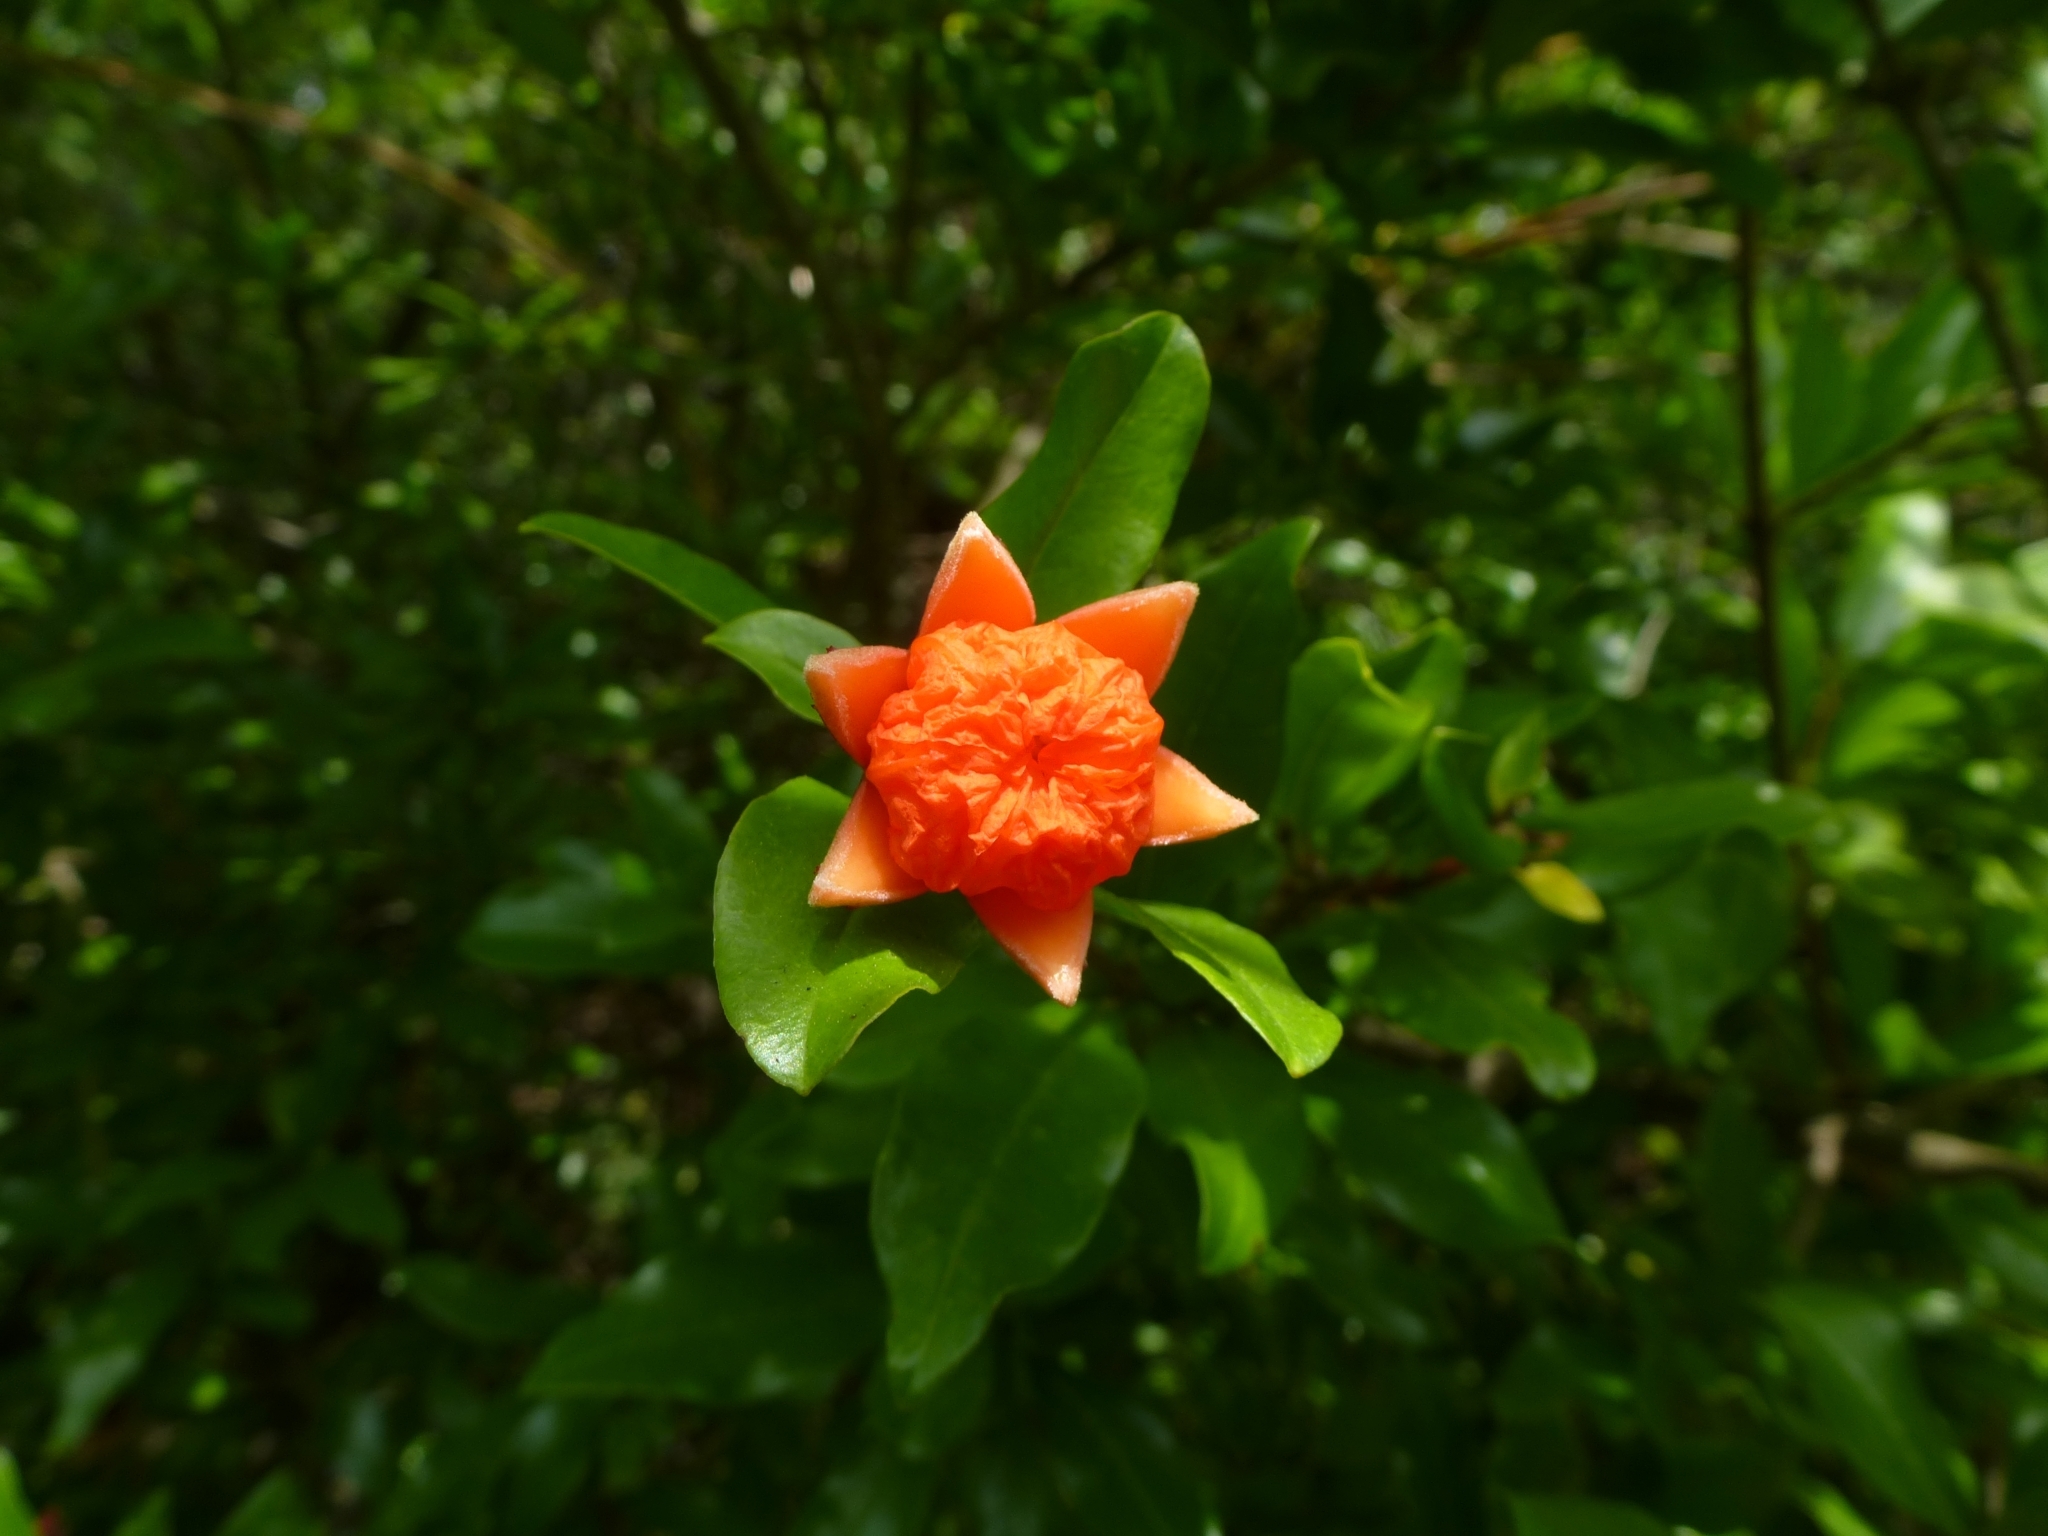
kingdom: Plantae
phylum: Tracheophyta
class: Magnoliopsida
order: Myrtales
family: Lythraceae
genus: Punica
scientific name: Punica granatum
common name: Pomegranate
